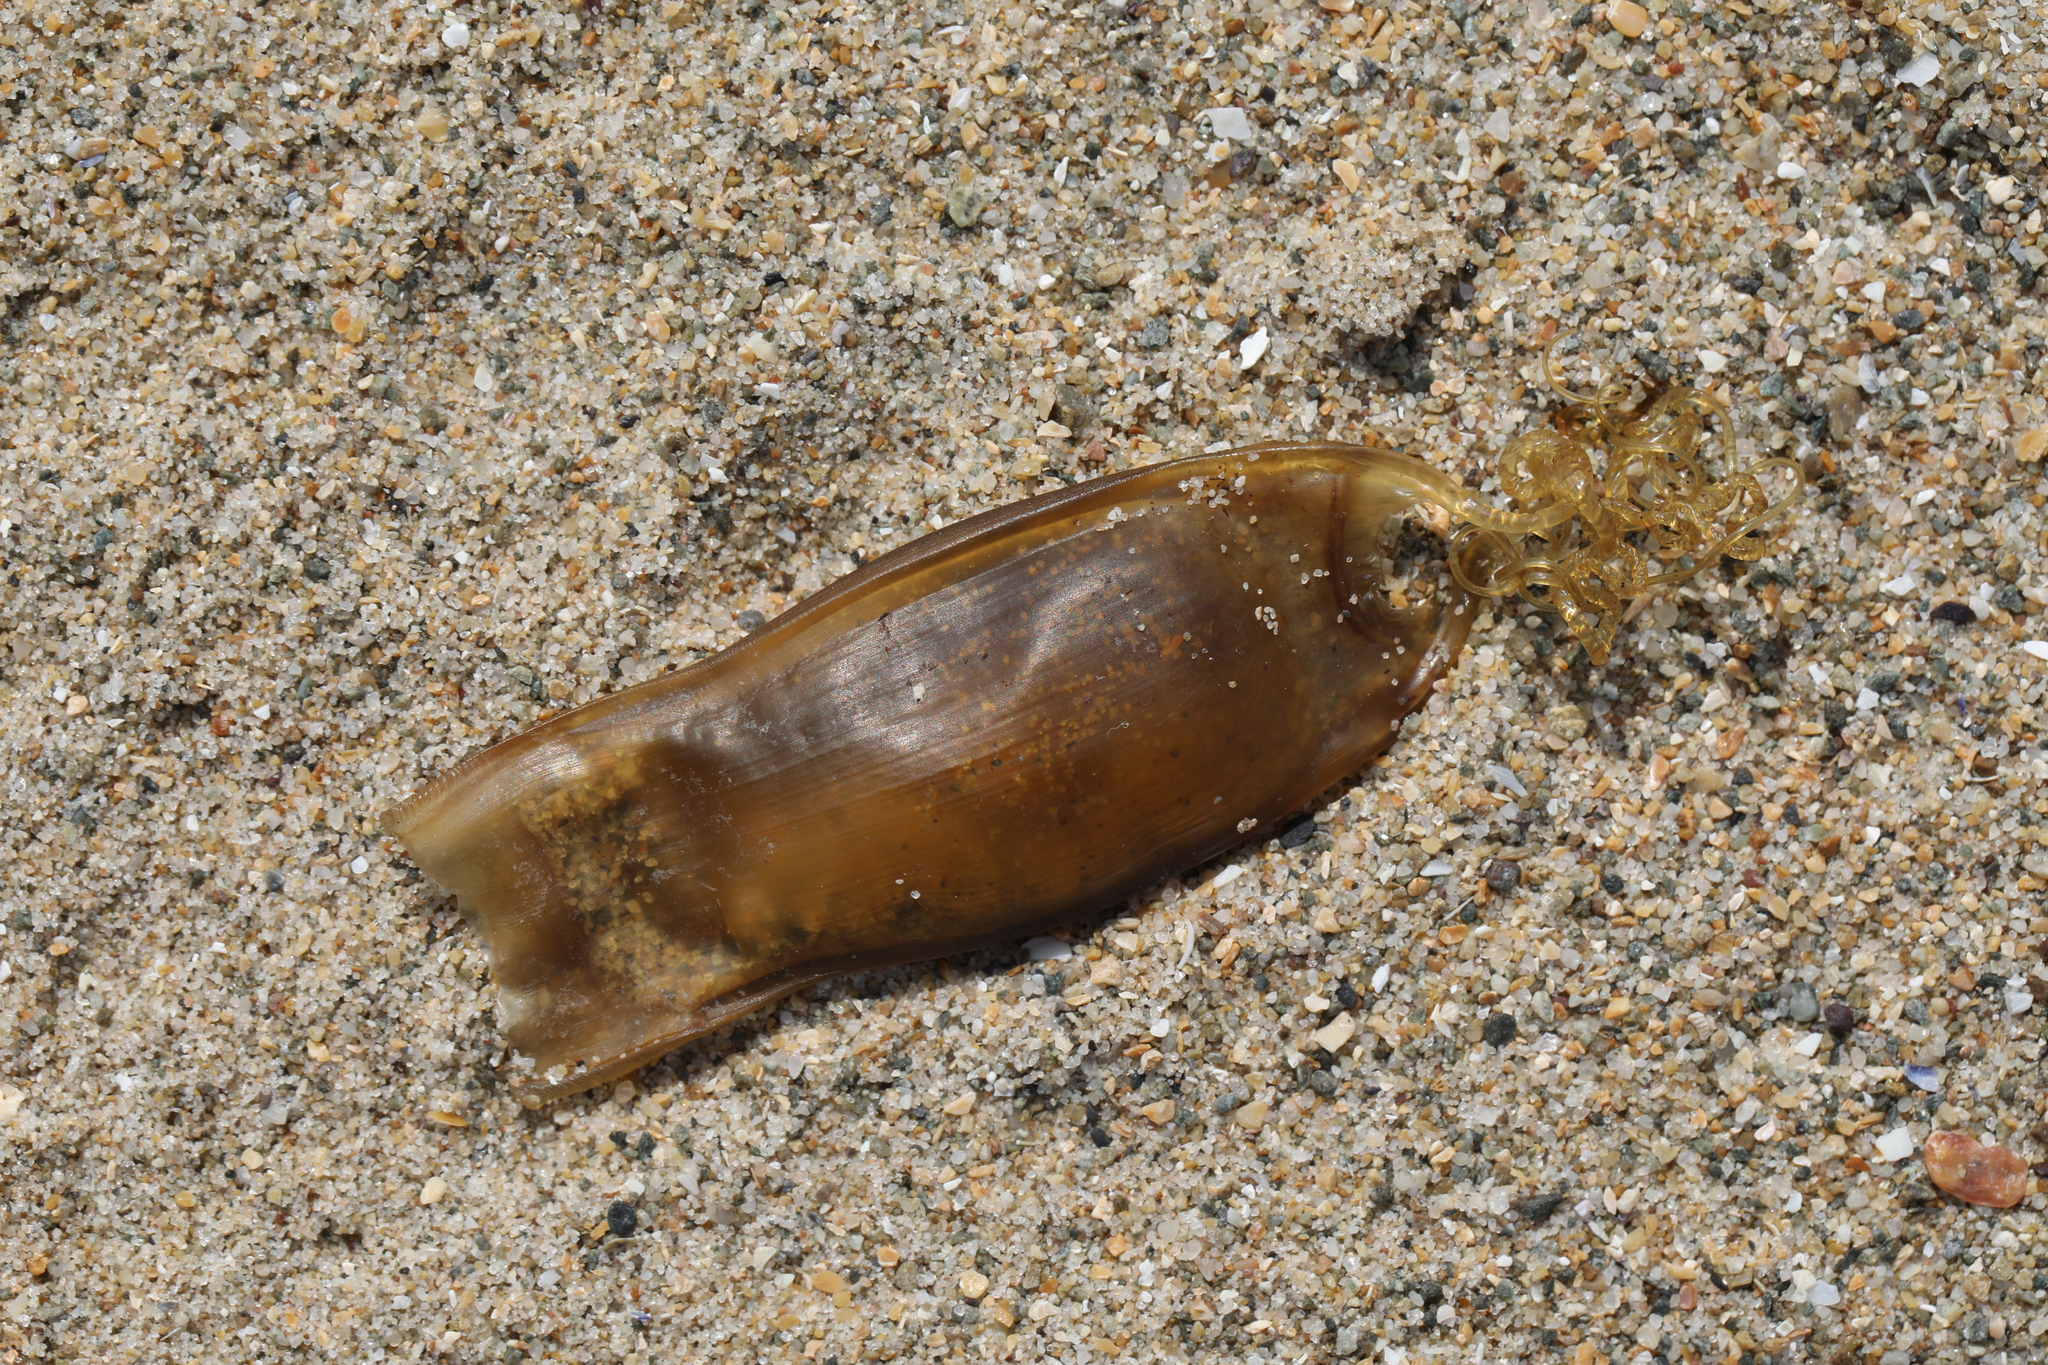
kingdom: Animalia
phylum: Chordata
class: Elasmobranchii
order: Carcharhiniformes
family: Scyliorhinidae
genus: Scyliorhinus
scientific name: Scyliorhinus canicula
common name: Lesser spotted dogfish
